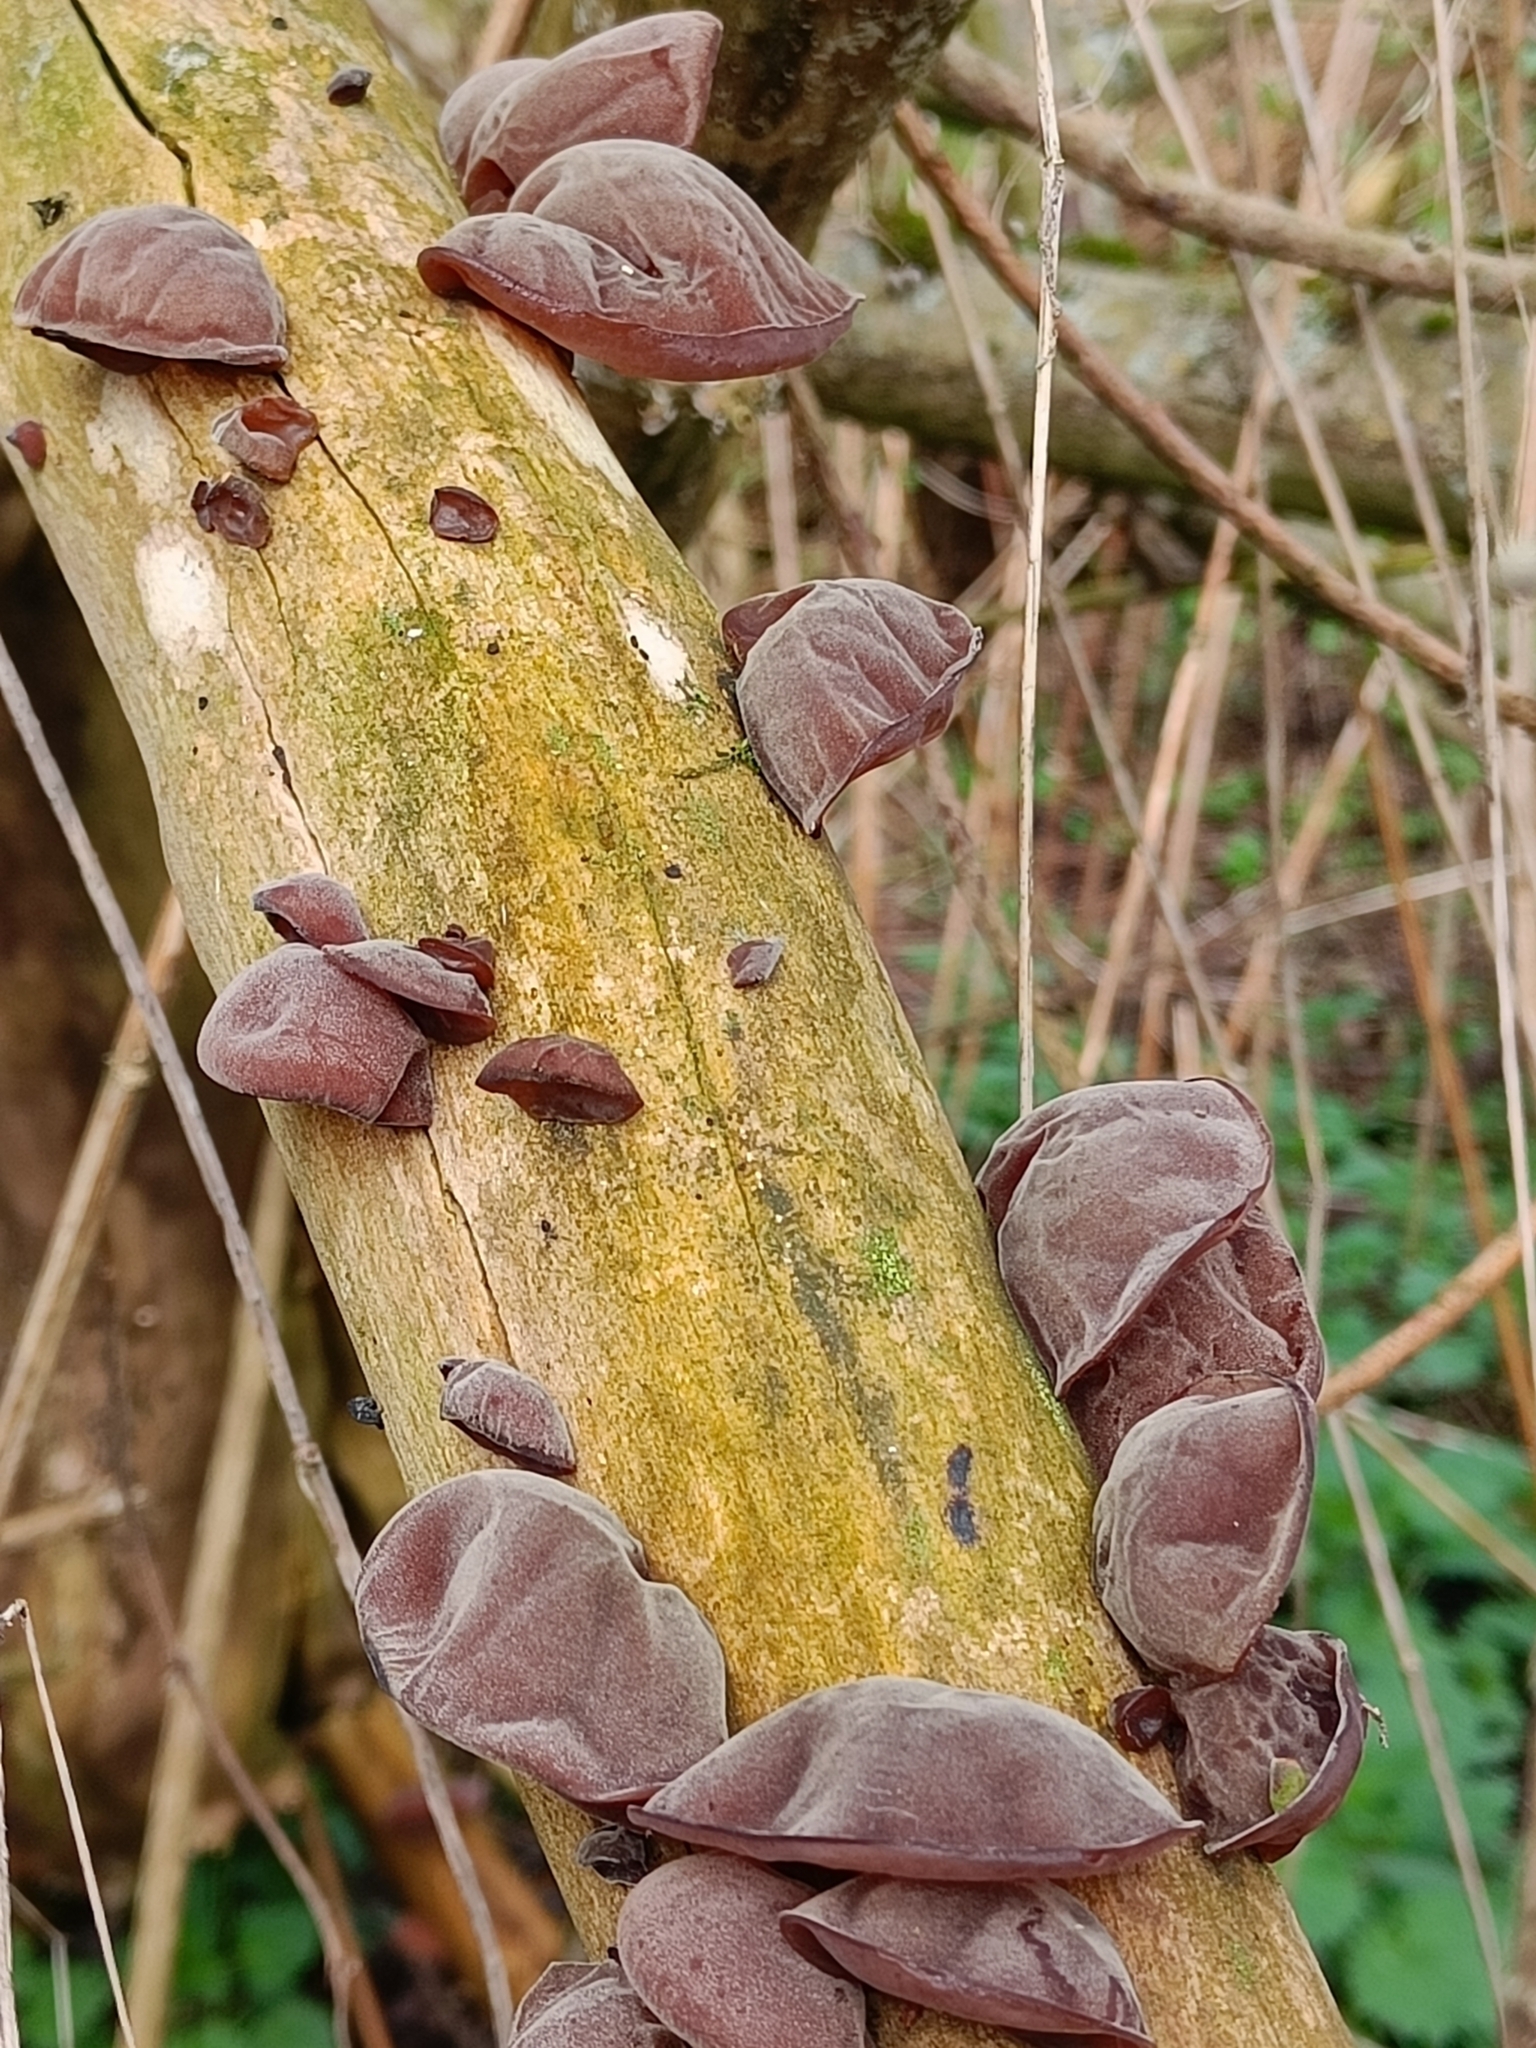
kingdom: Fungi
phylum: Basidiomycota
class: Agaricomycetes
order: Auriculariales
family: Auriculariaceae
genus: Auricularia
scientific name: Auricularia auricula-judae
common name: Jelly ear
